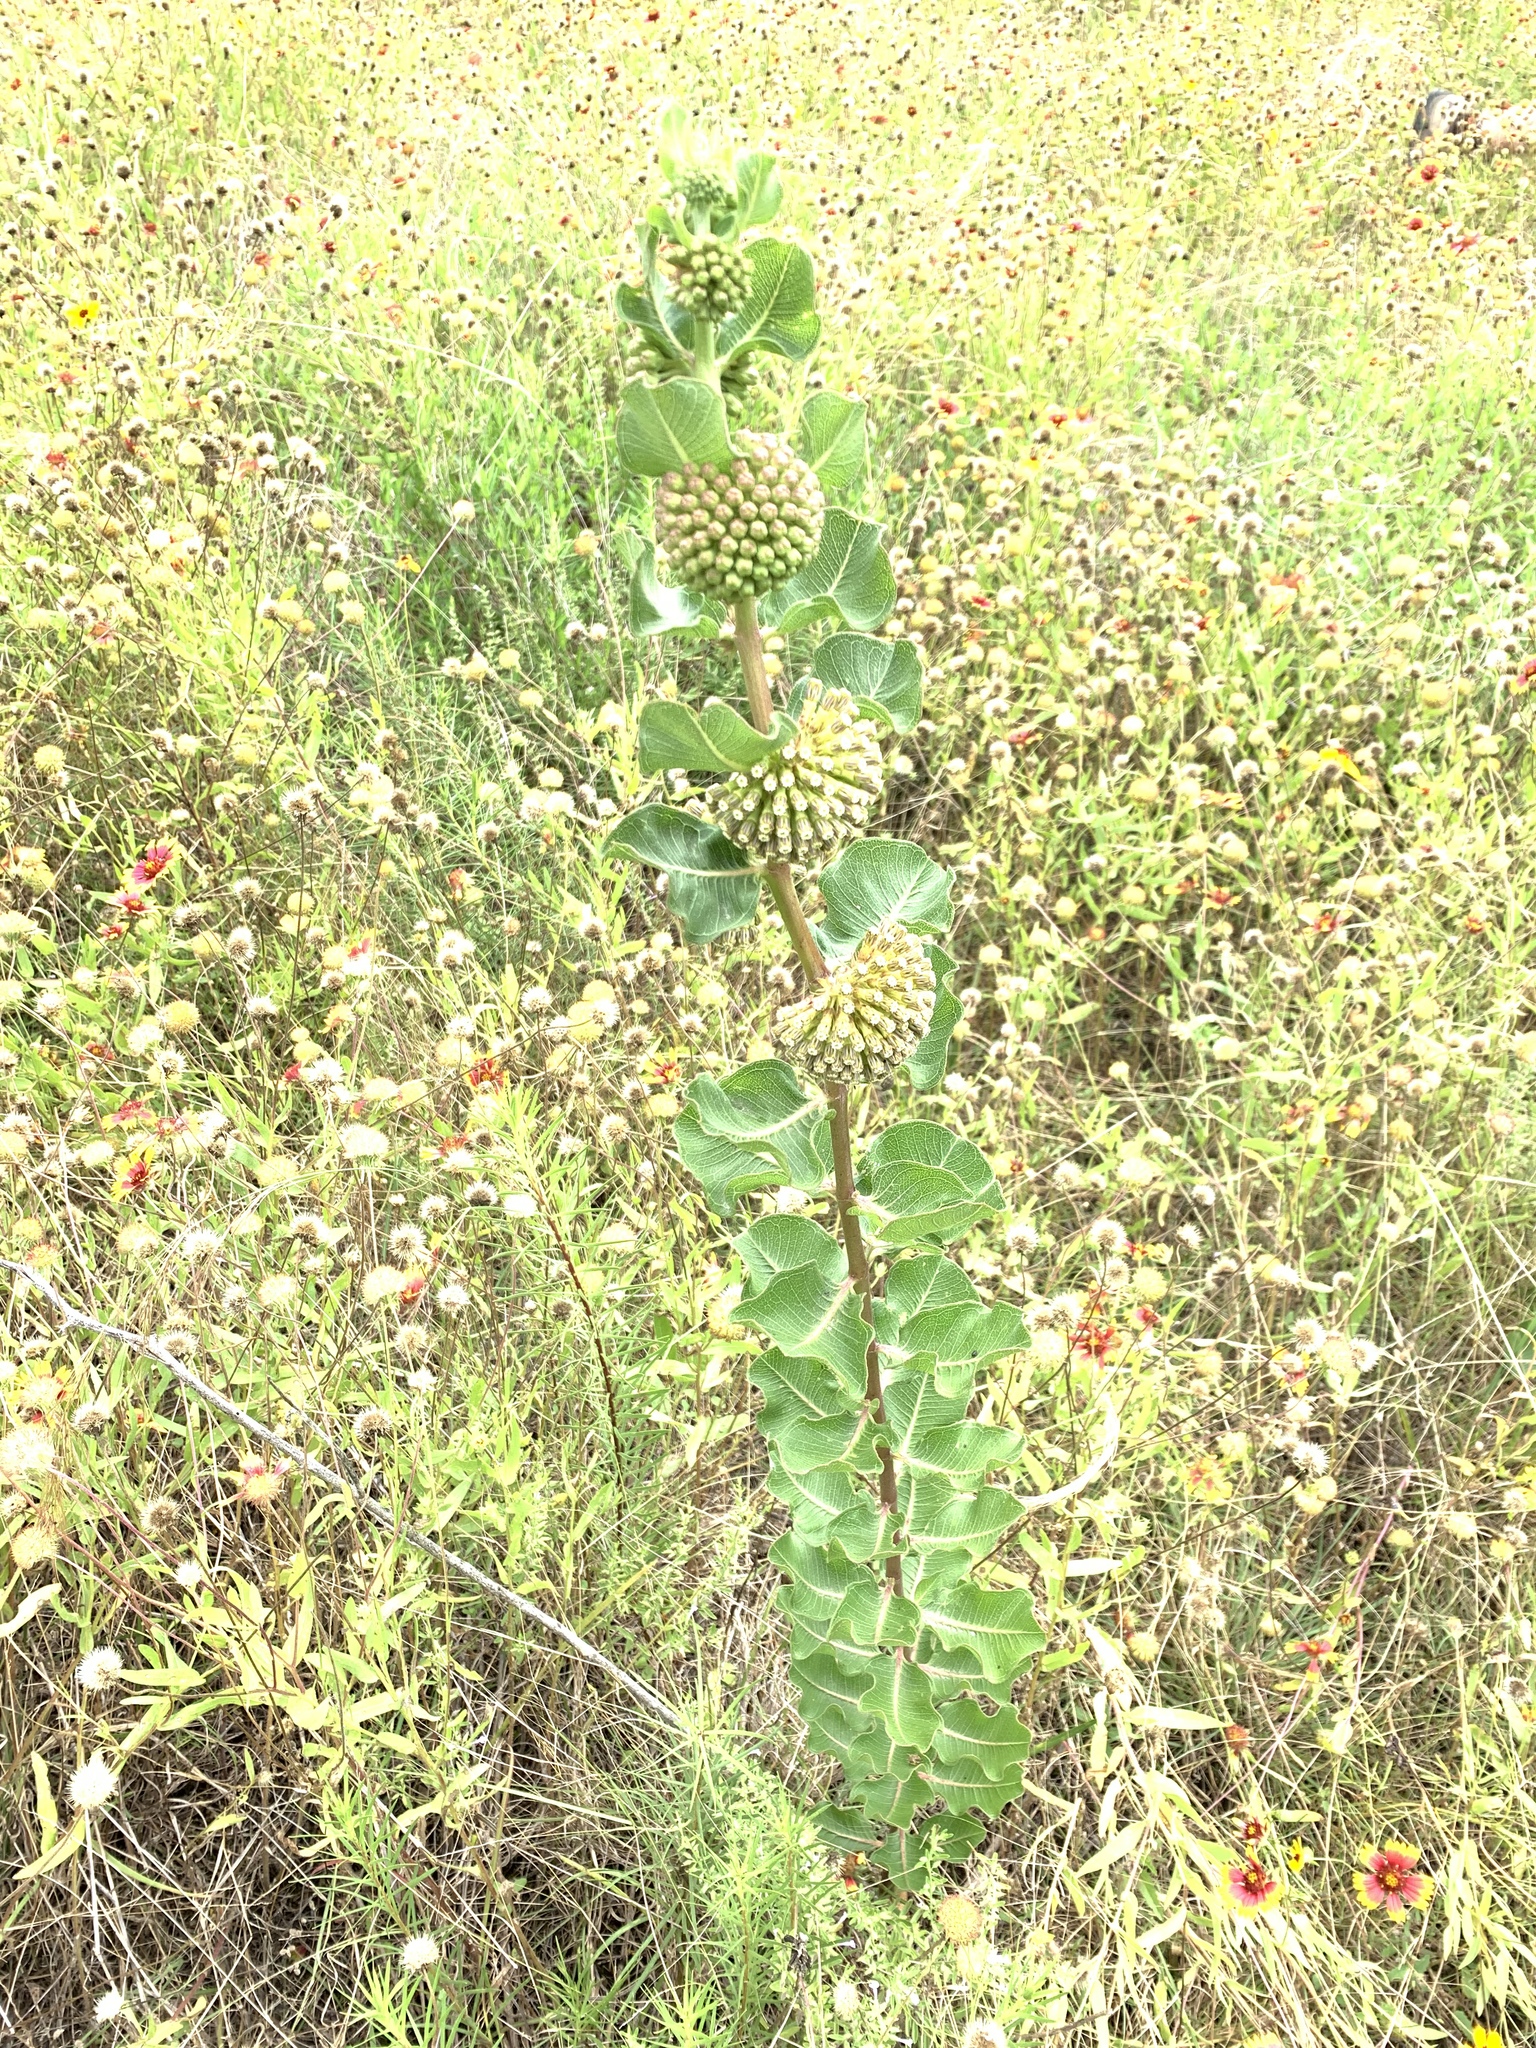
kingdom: Plantae
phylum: Tracheophyta
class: Magnoliopsida
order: Gentianales
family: Apocynaceae
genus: Asclepias
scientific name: Asclepias viridiflora
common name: Green comet milkweed
